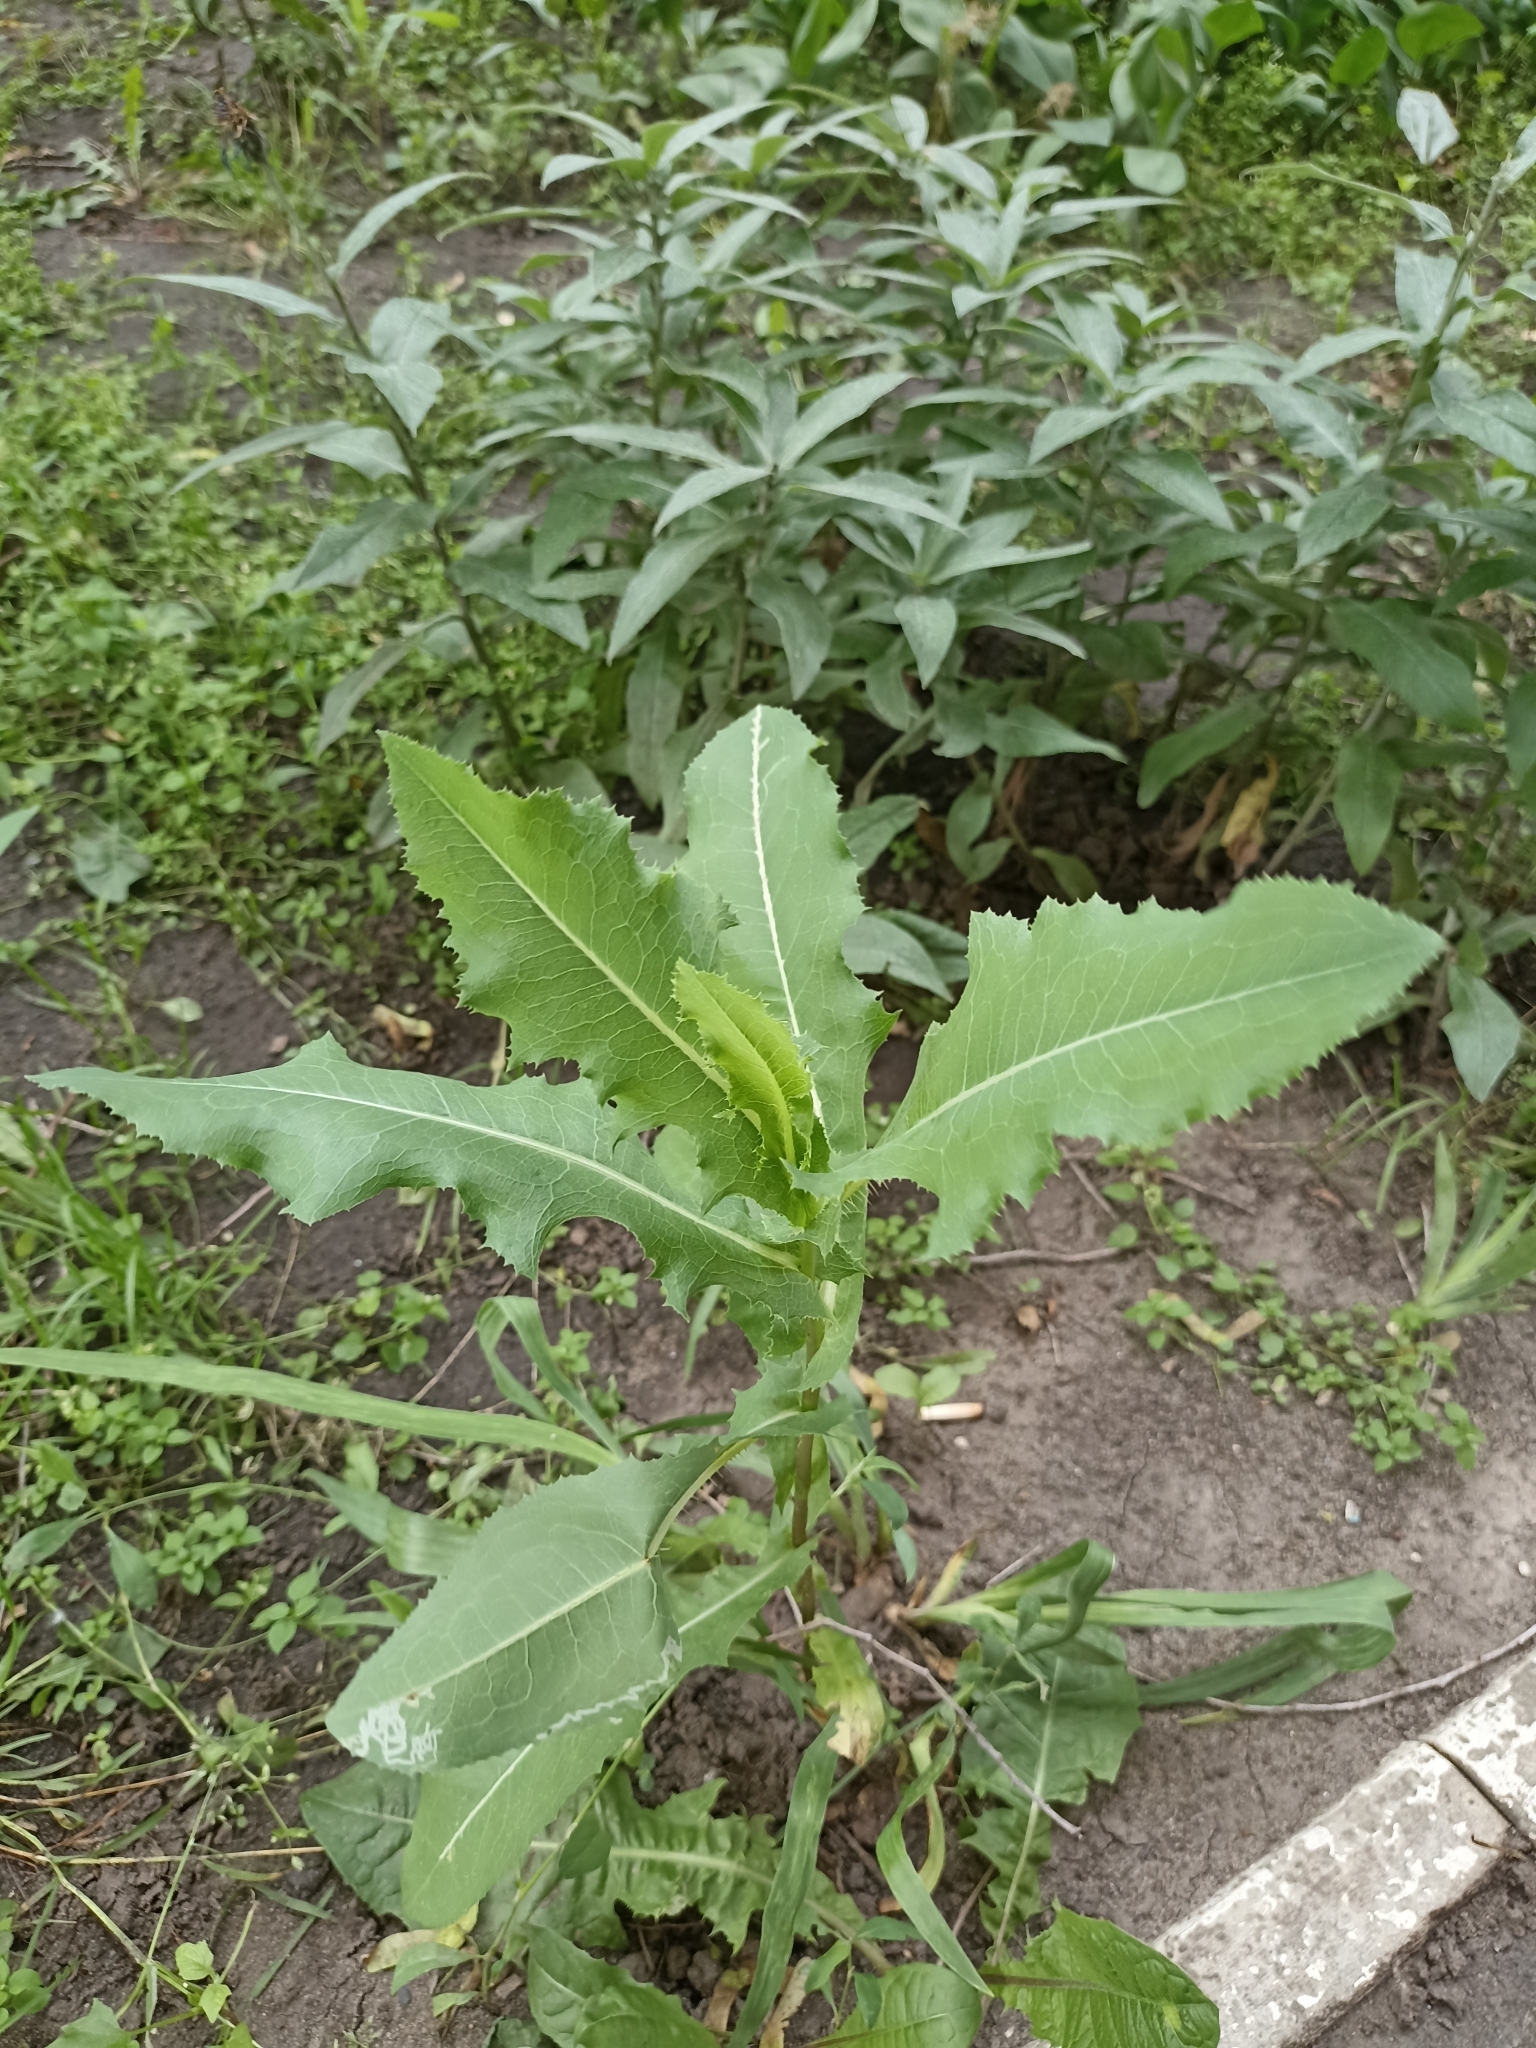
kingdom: Plantae
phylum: Tracheophyta
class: Magnoliopsida
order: Asterales
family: Asteraceae
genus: Lactuca
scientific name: Lactuca serriola
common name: Prickly lettuce
